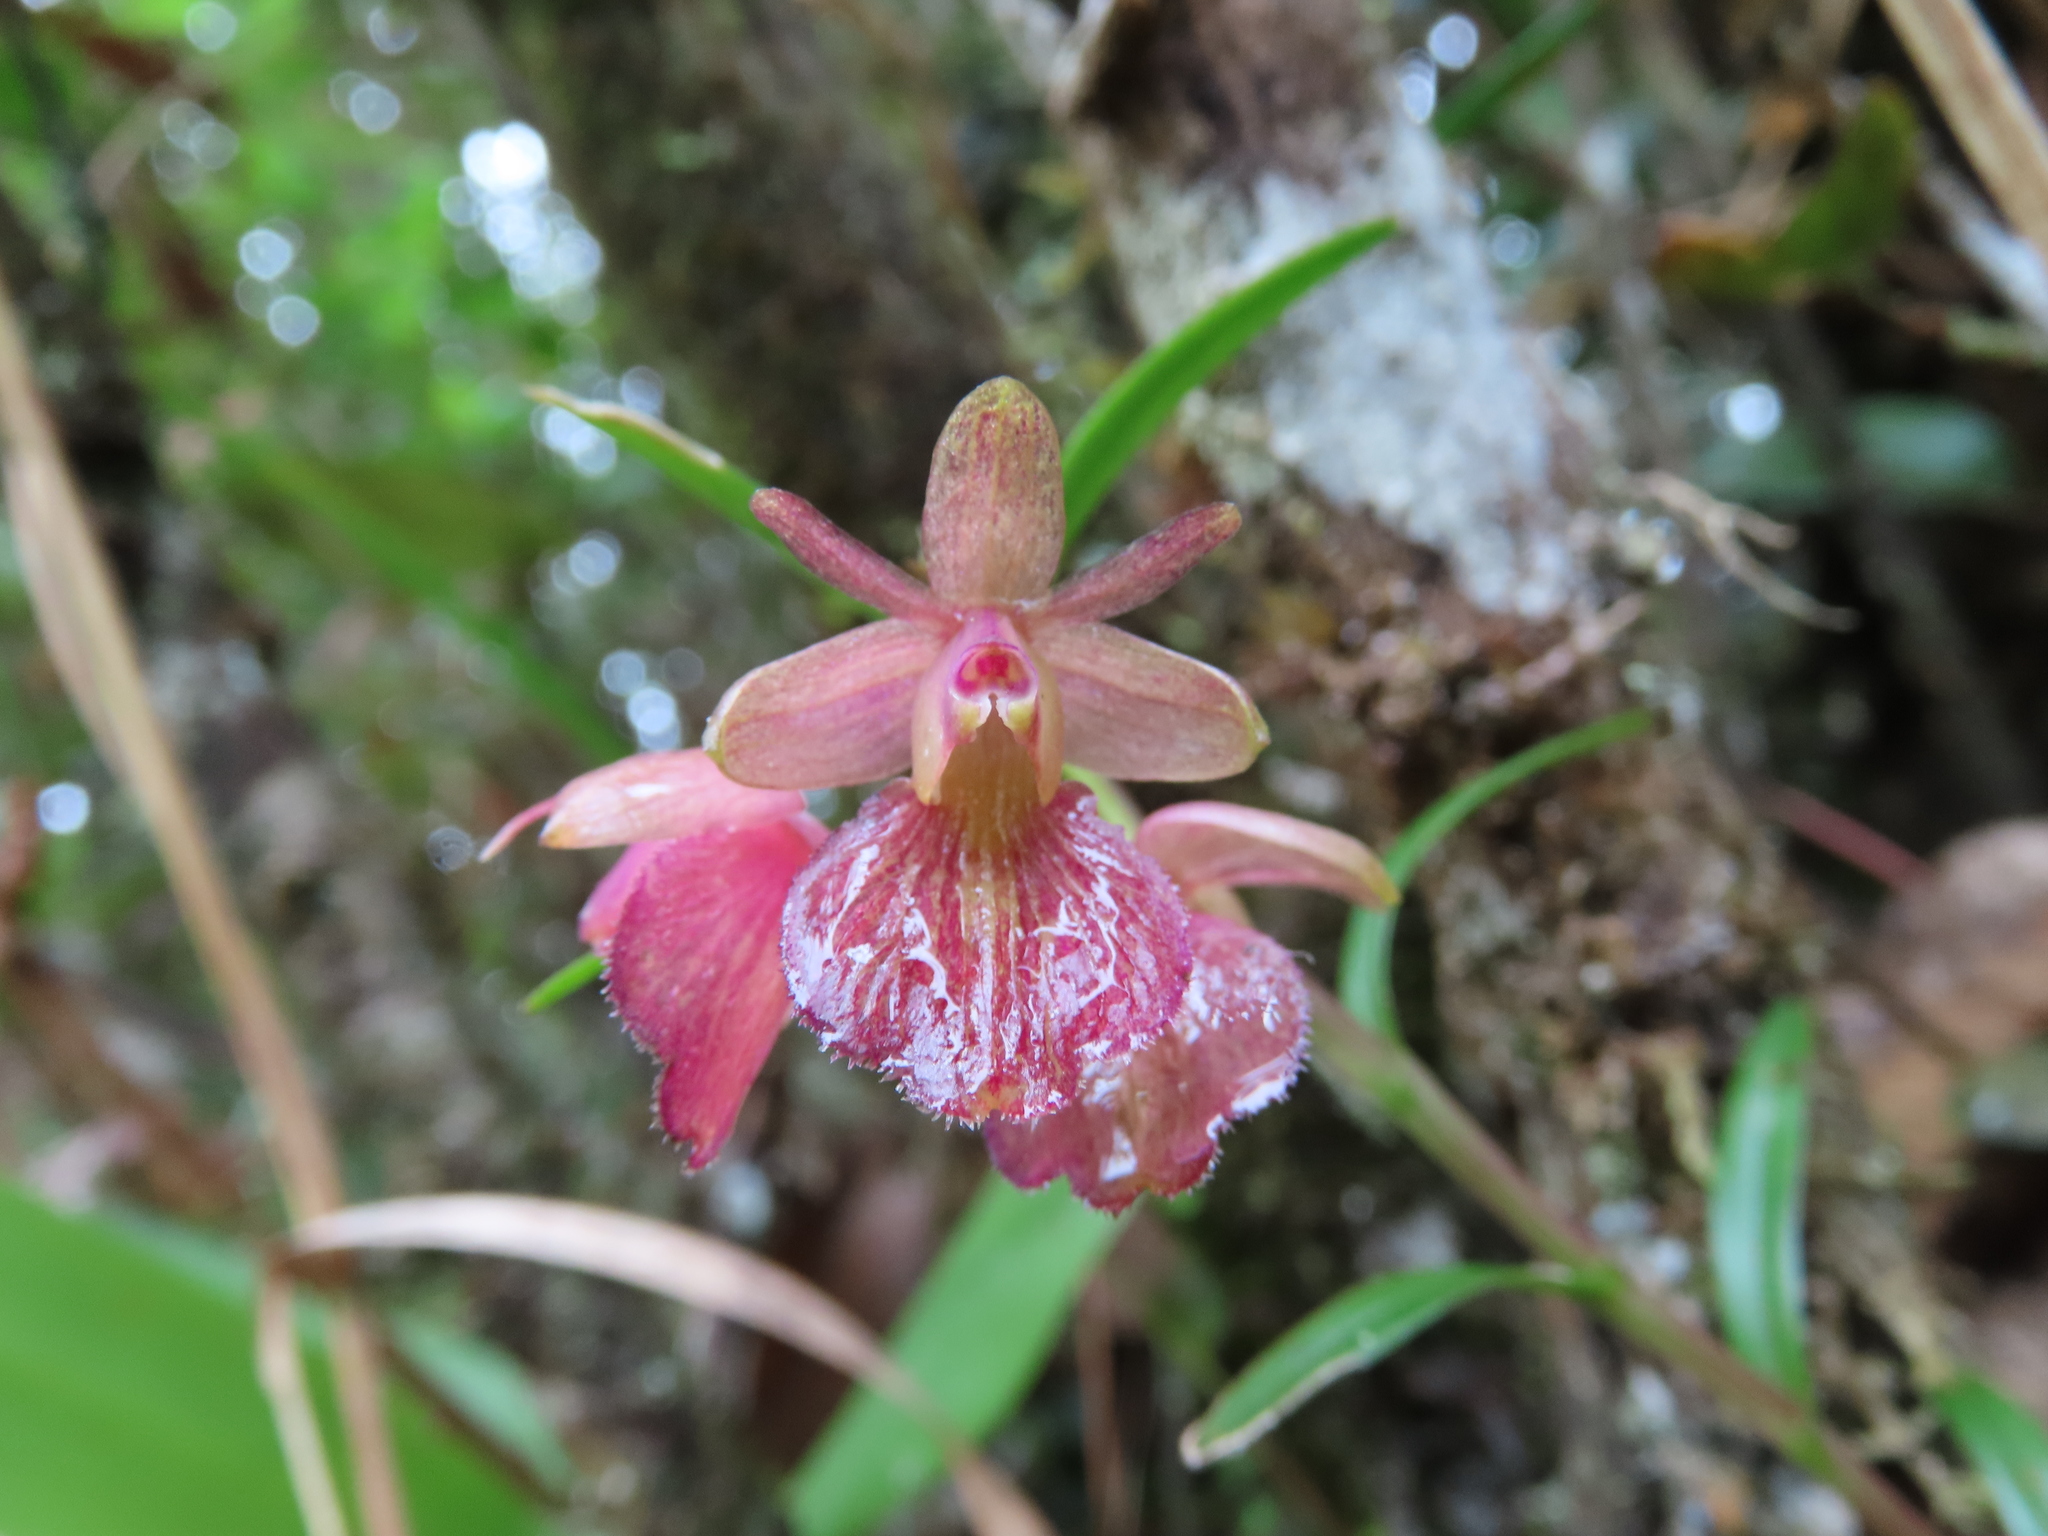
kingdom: Plantae
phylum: Tracheophyta
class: Liliopsida
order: Asparagales
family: Orchidaceae
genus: Epidendrum
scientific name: Epidendrum cleistocoleum
